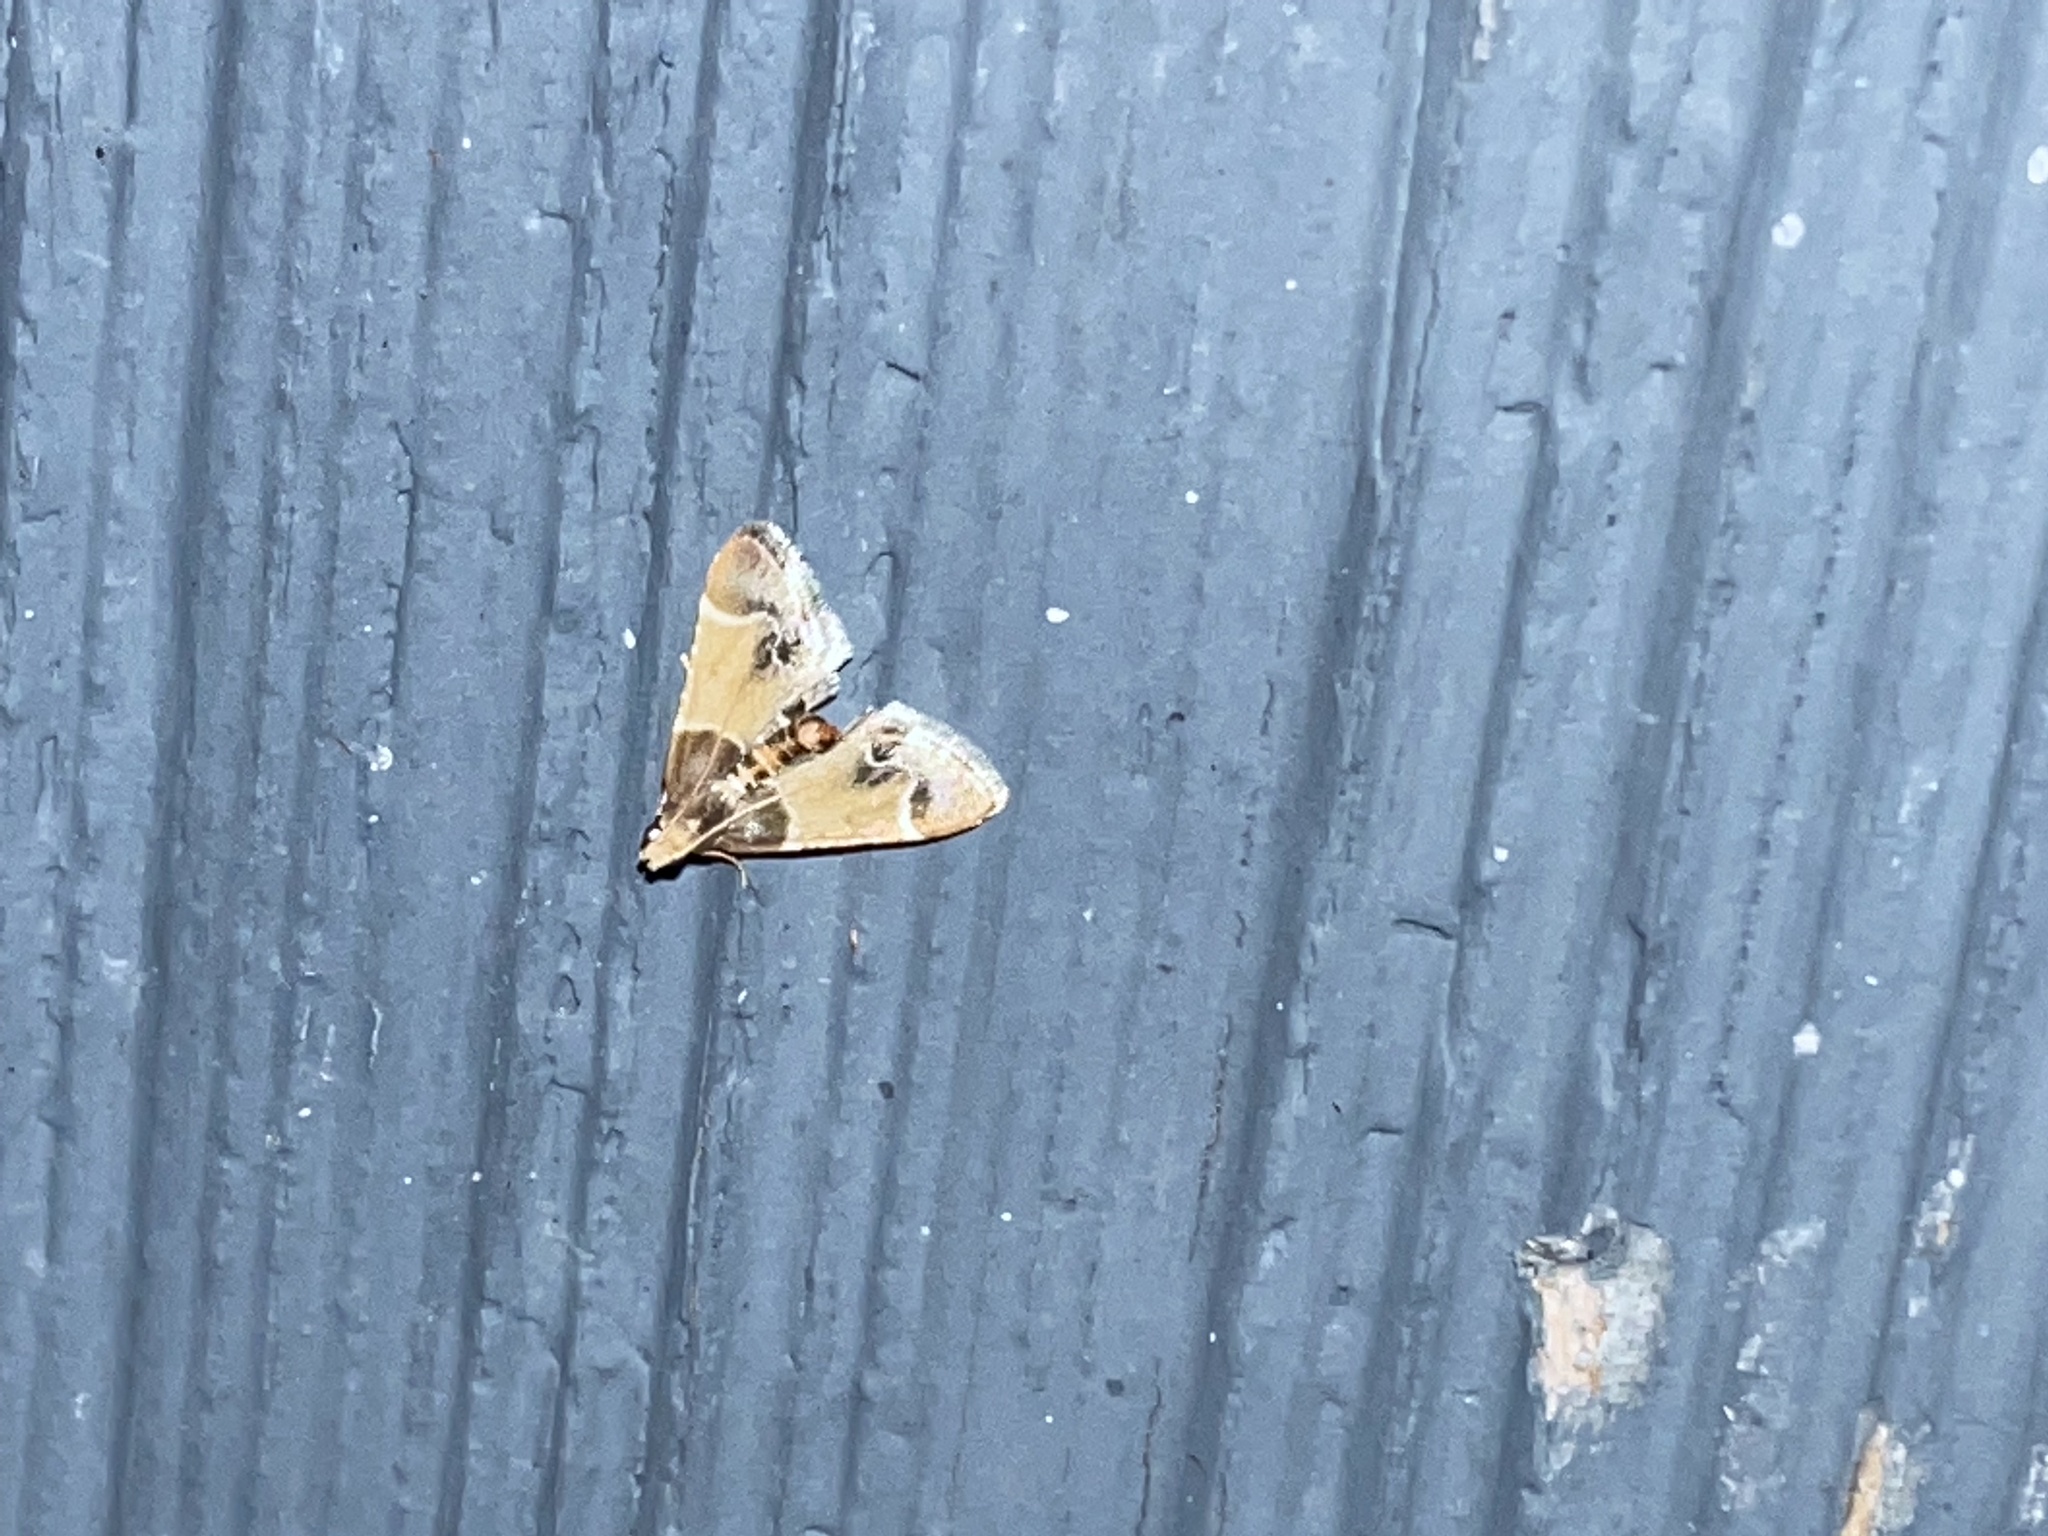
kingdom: Animalia
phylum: Arthropoda
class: Insecta
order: Lepidoptera
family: Pyralidae
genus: Pyralis
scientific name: Pyralis farinalis
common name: Meal moth
